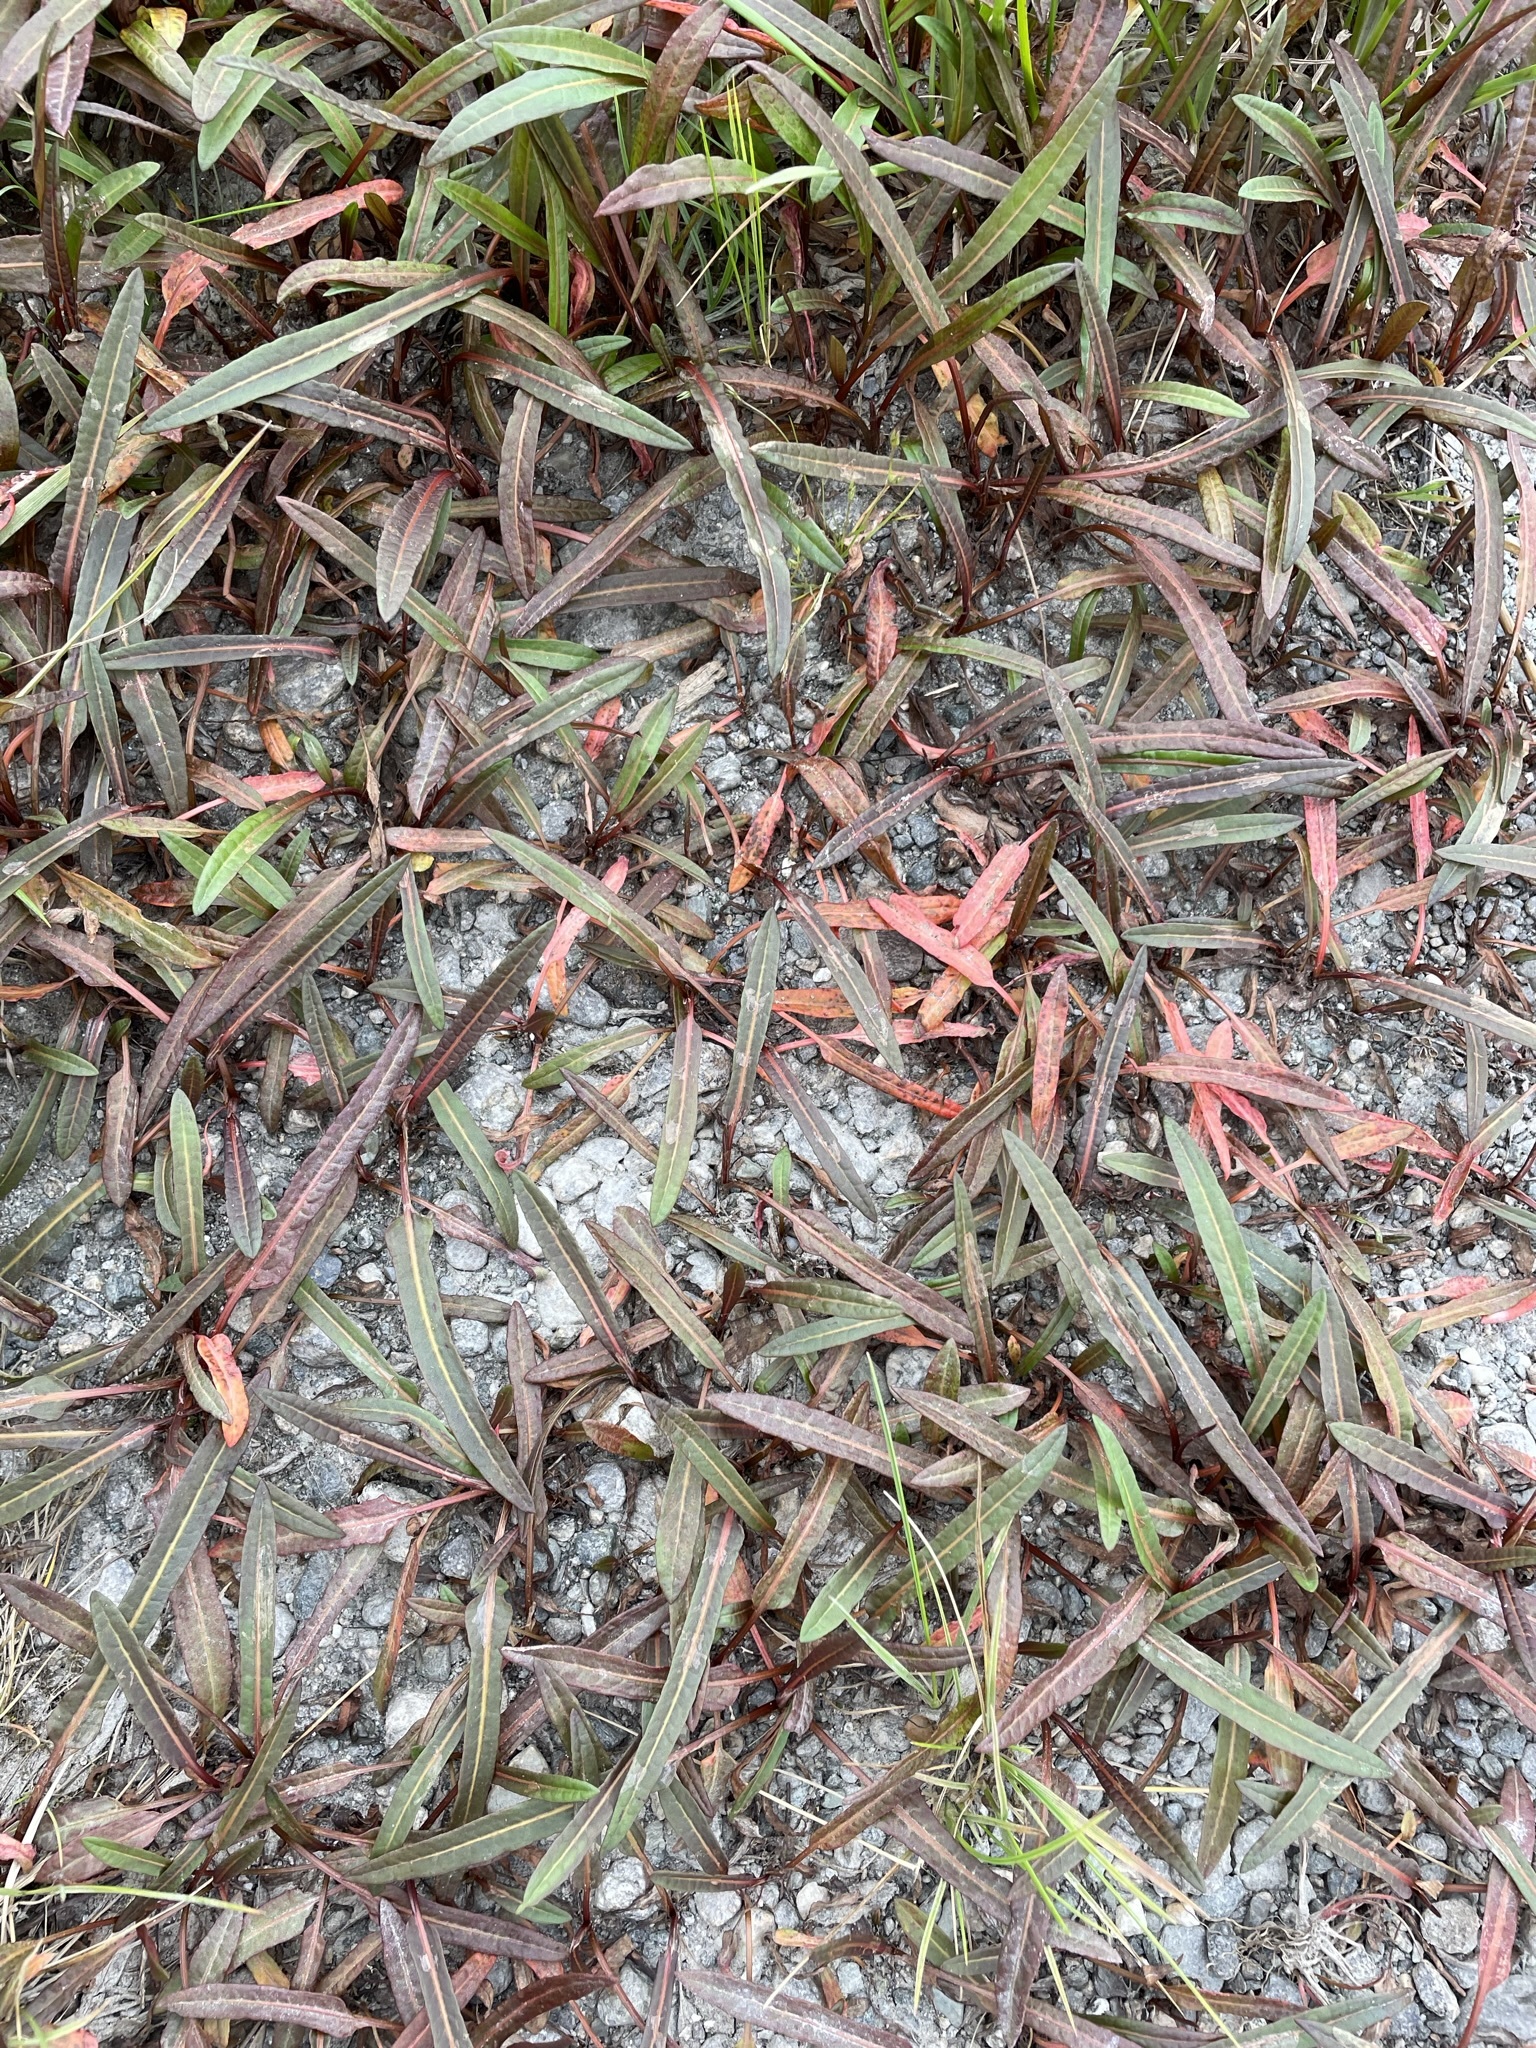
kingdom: Plantae
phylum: Tracheophyta
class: Magnoliopsida
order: Caryophyllales
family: Polygonaceae
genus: Rumex
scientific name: Rumex flexuosus
